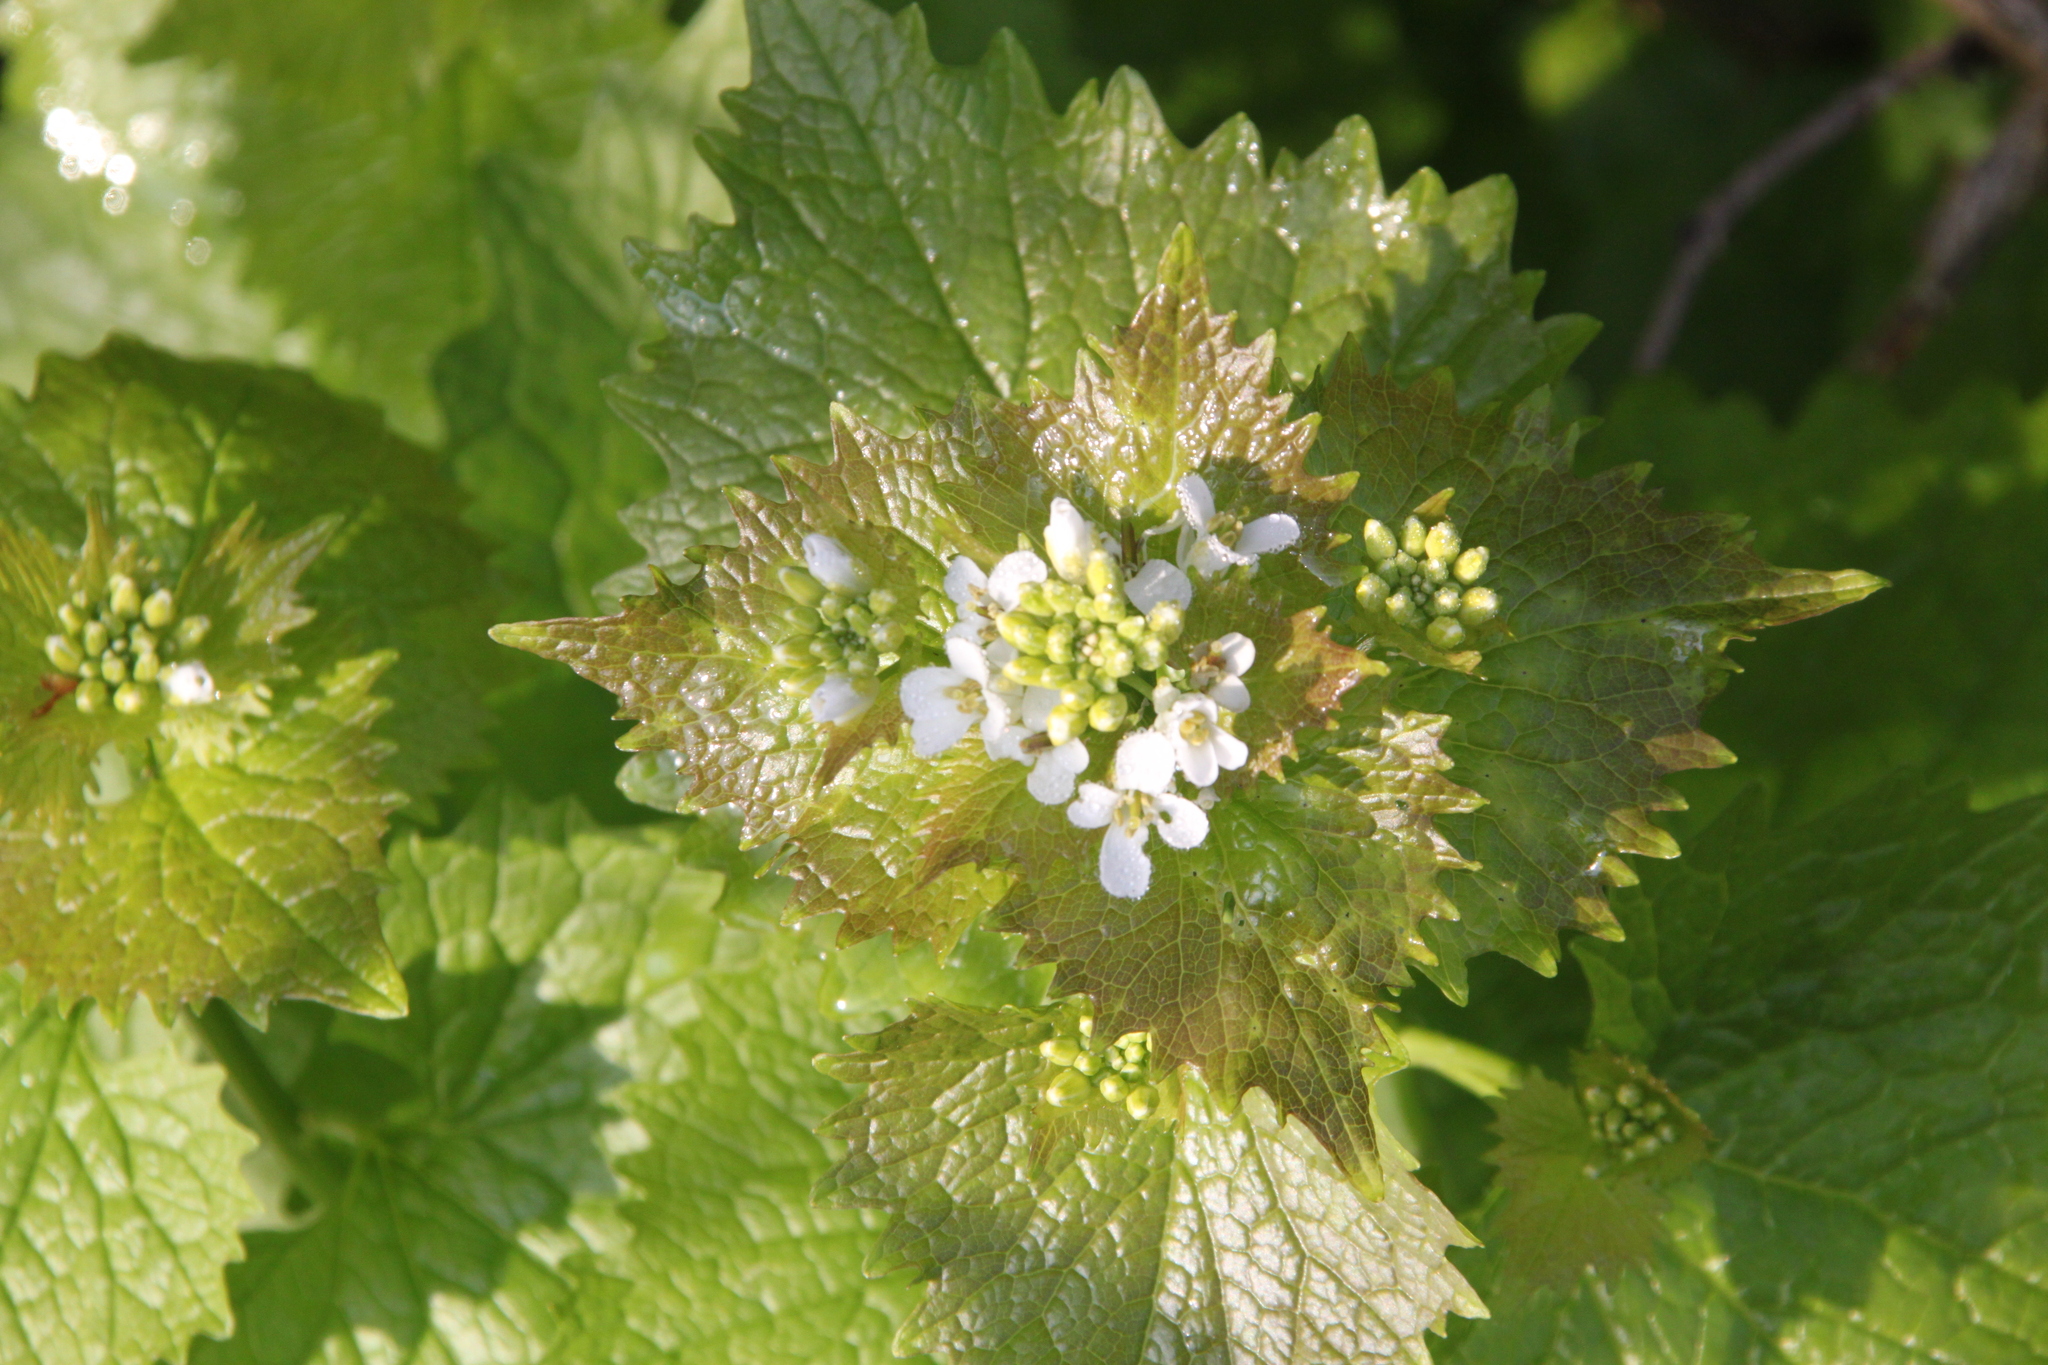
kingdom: Plantae
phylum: Tracheophyta
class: Magnoliopsida
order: Brassicales
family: Brassicaceae
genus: Alliaria
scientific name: Alliaria petiolata
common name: Garlic mustard
